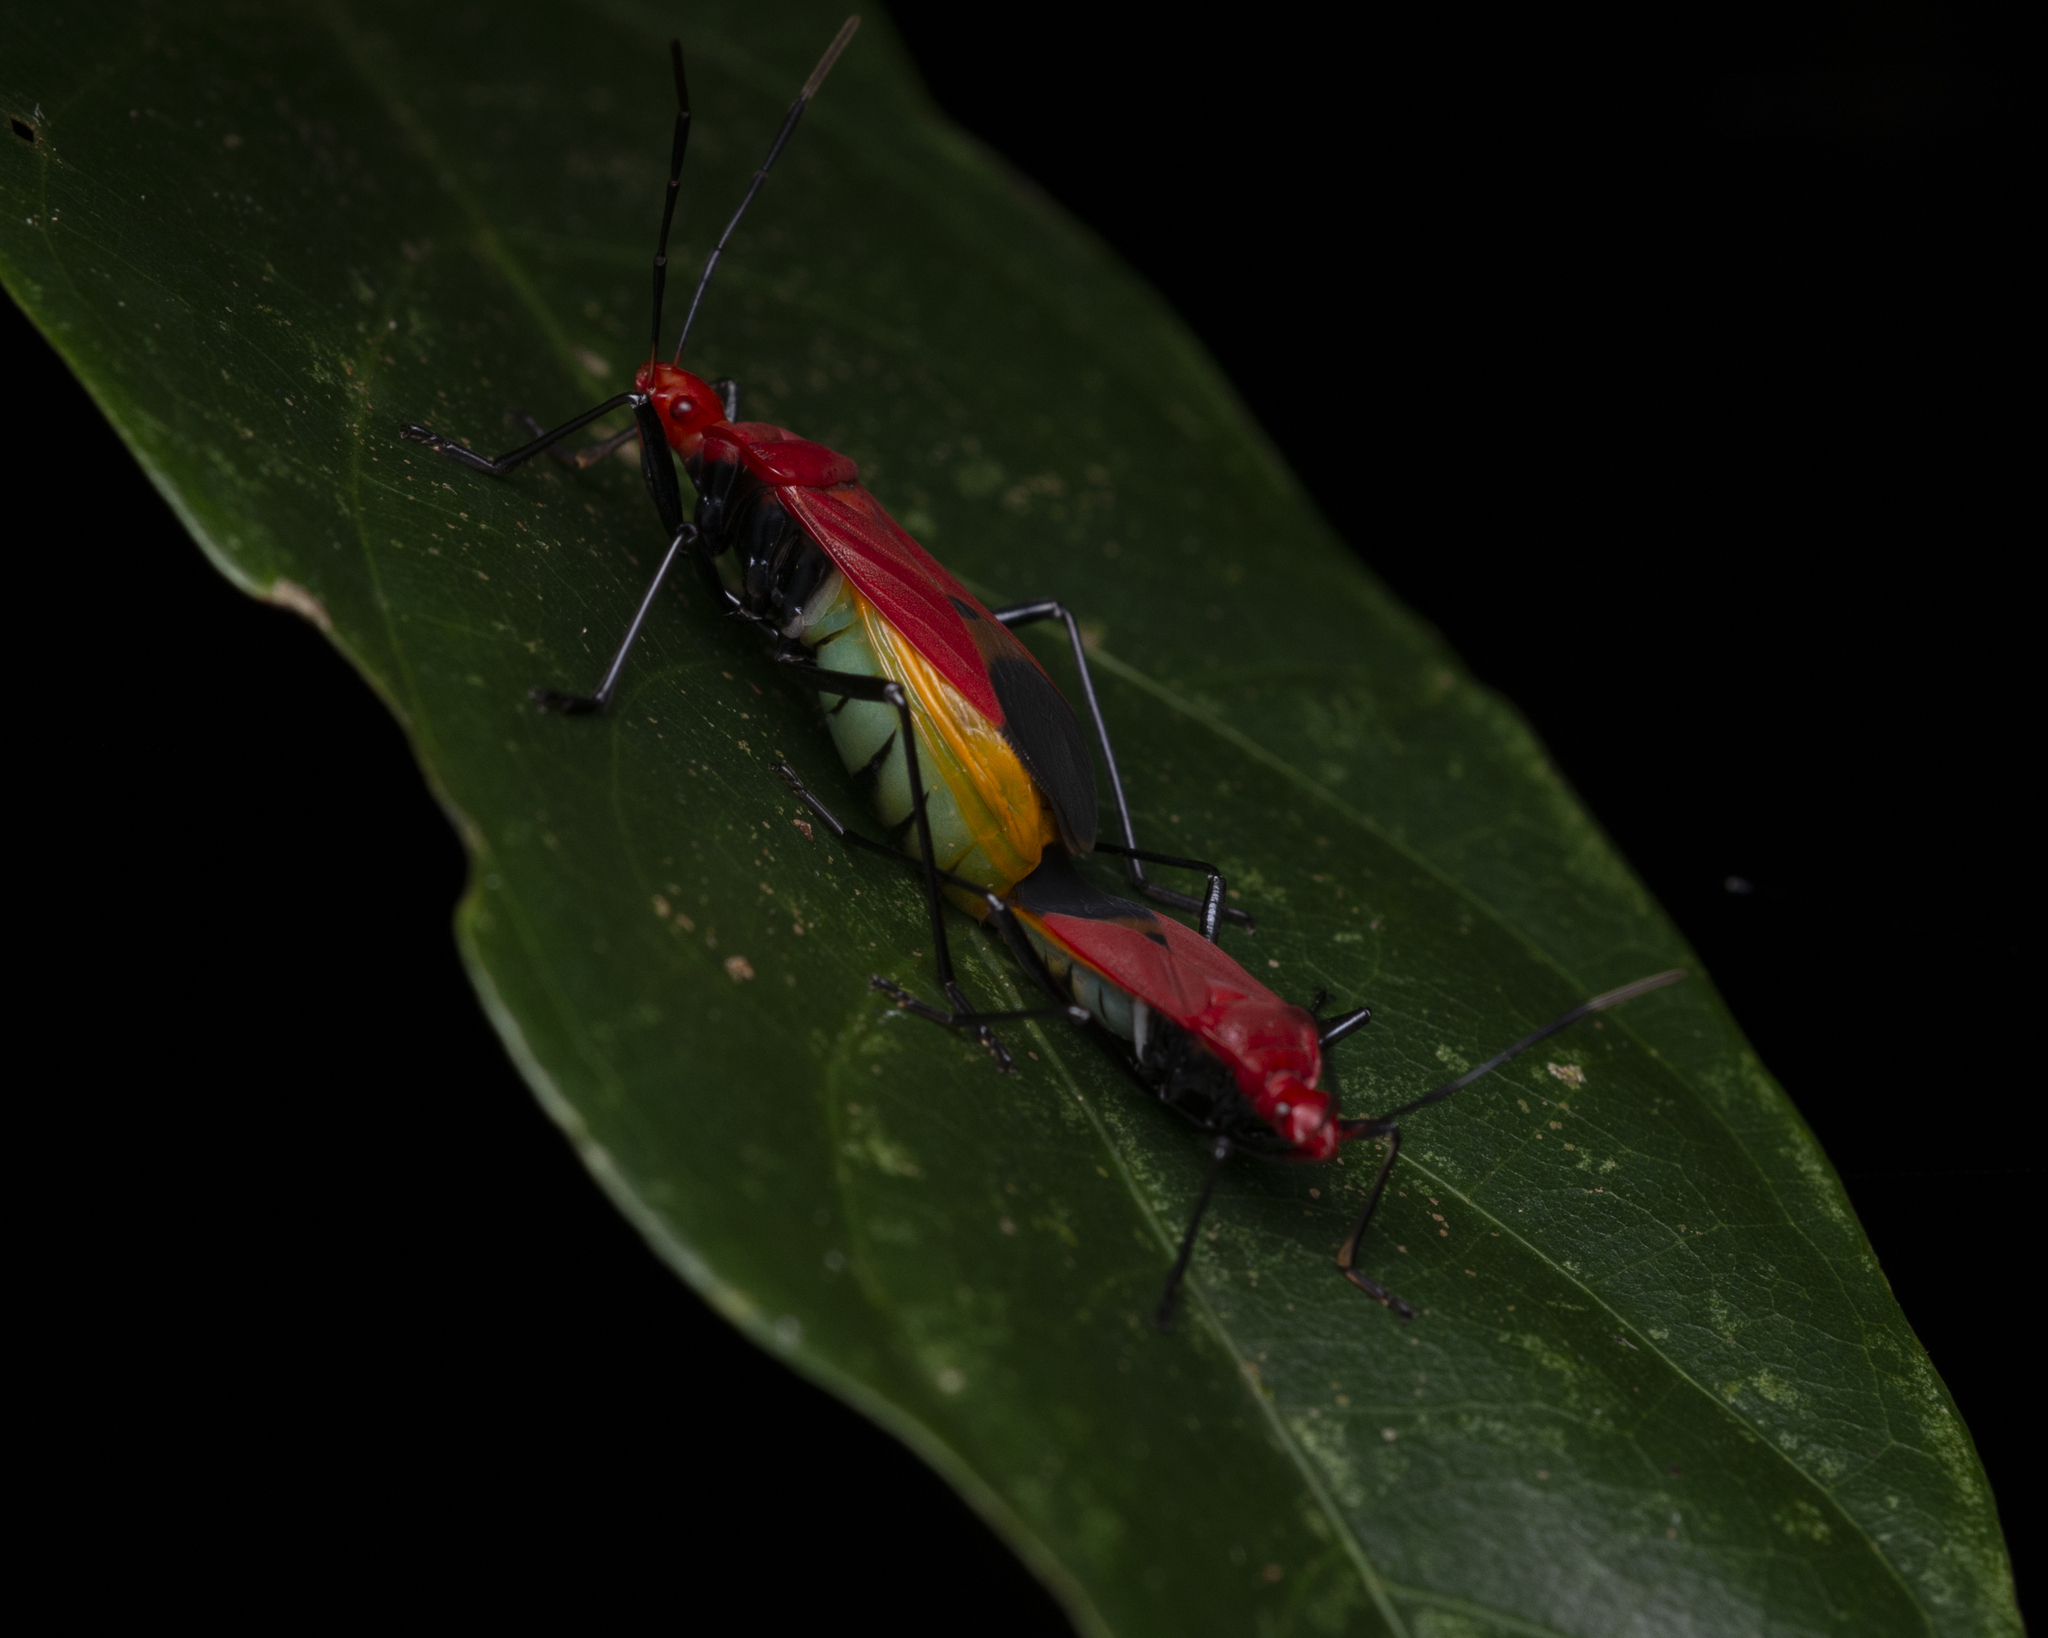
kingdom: Animalia
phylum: Arthropoda
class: Insecta
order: Hemiptera
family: Pyrrhocoridae
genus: Dindymus
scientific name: Dindymus
